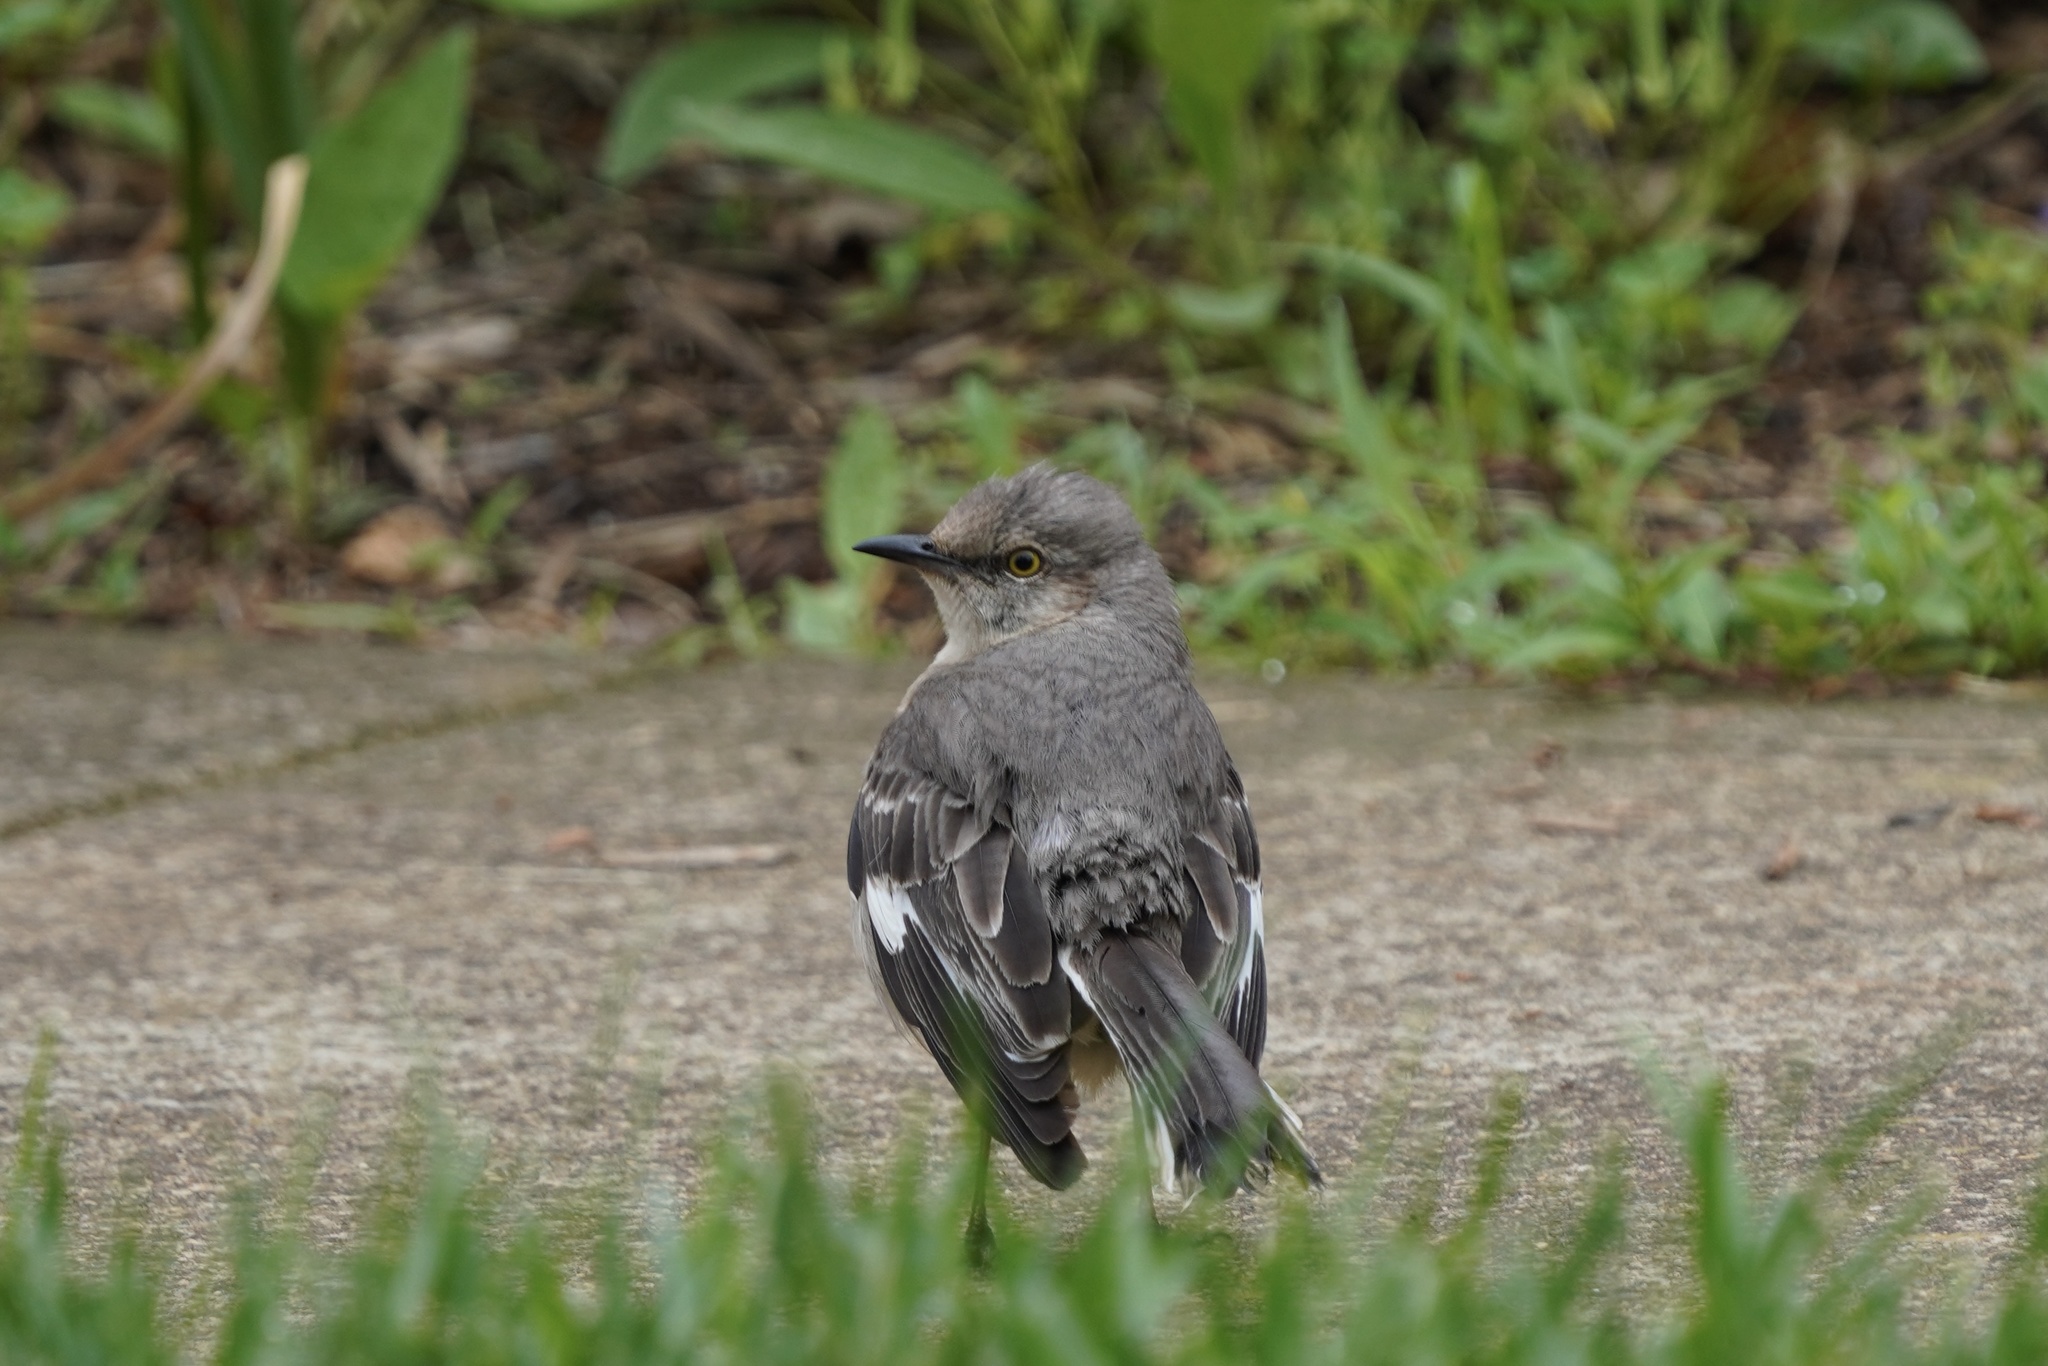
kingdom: Animalia
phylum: Chordata
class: Aves
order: Passeriformes
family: Mimidae
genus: Mimus
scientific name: Mimus polyglottos
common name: Northern mockingbird
